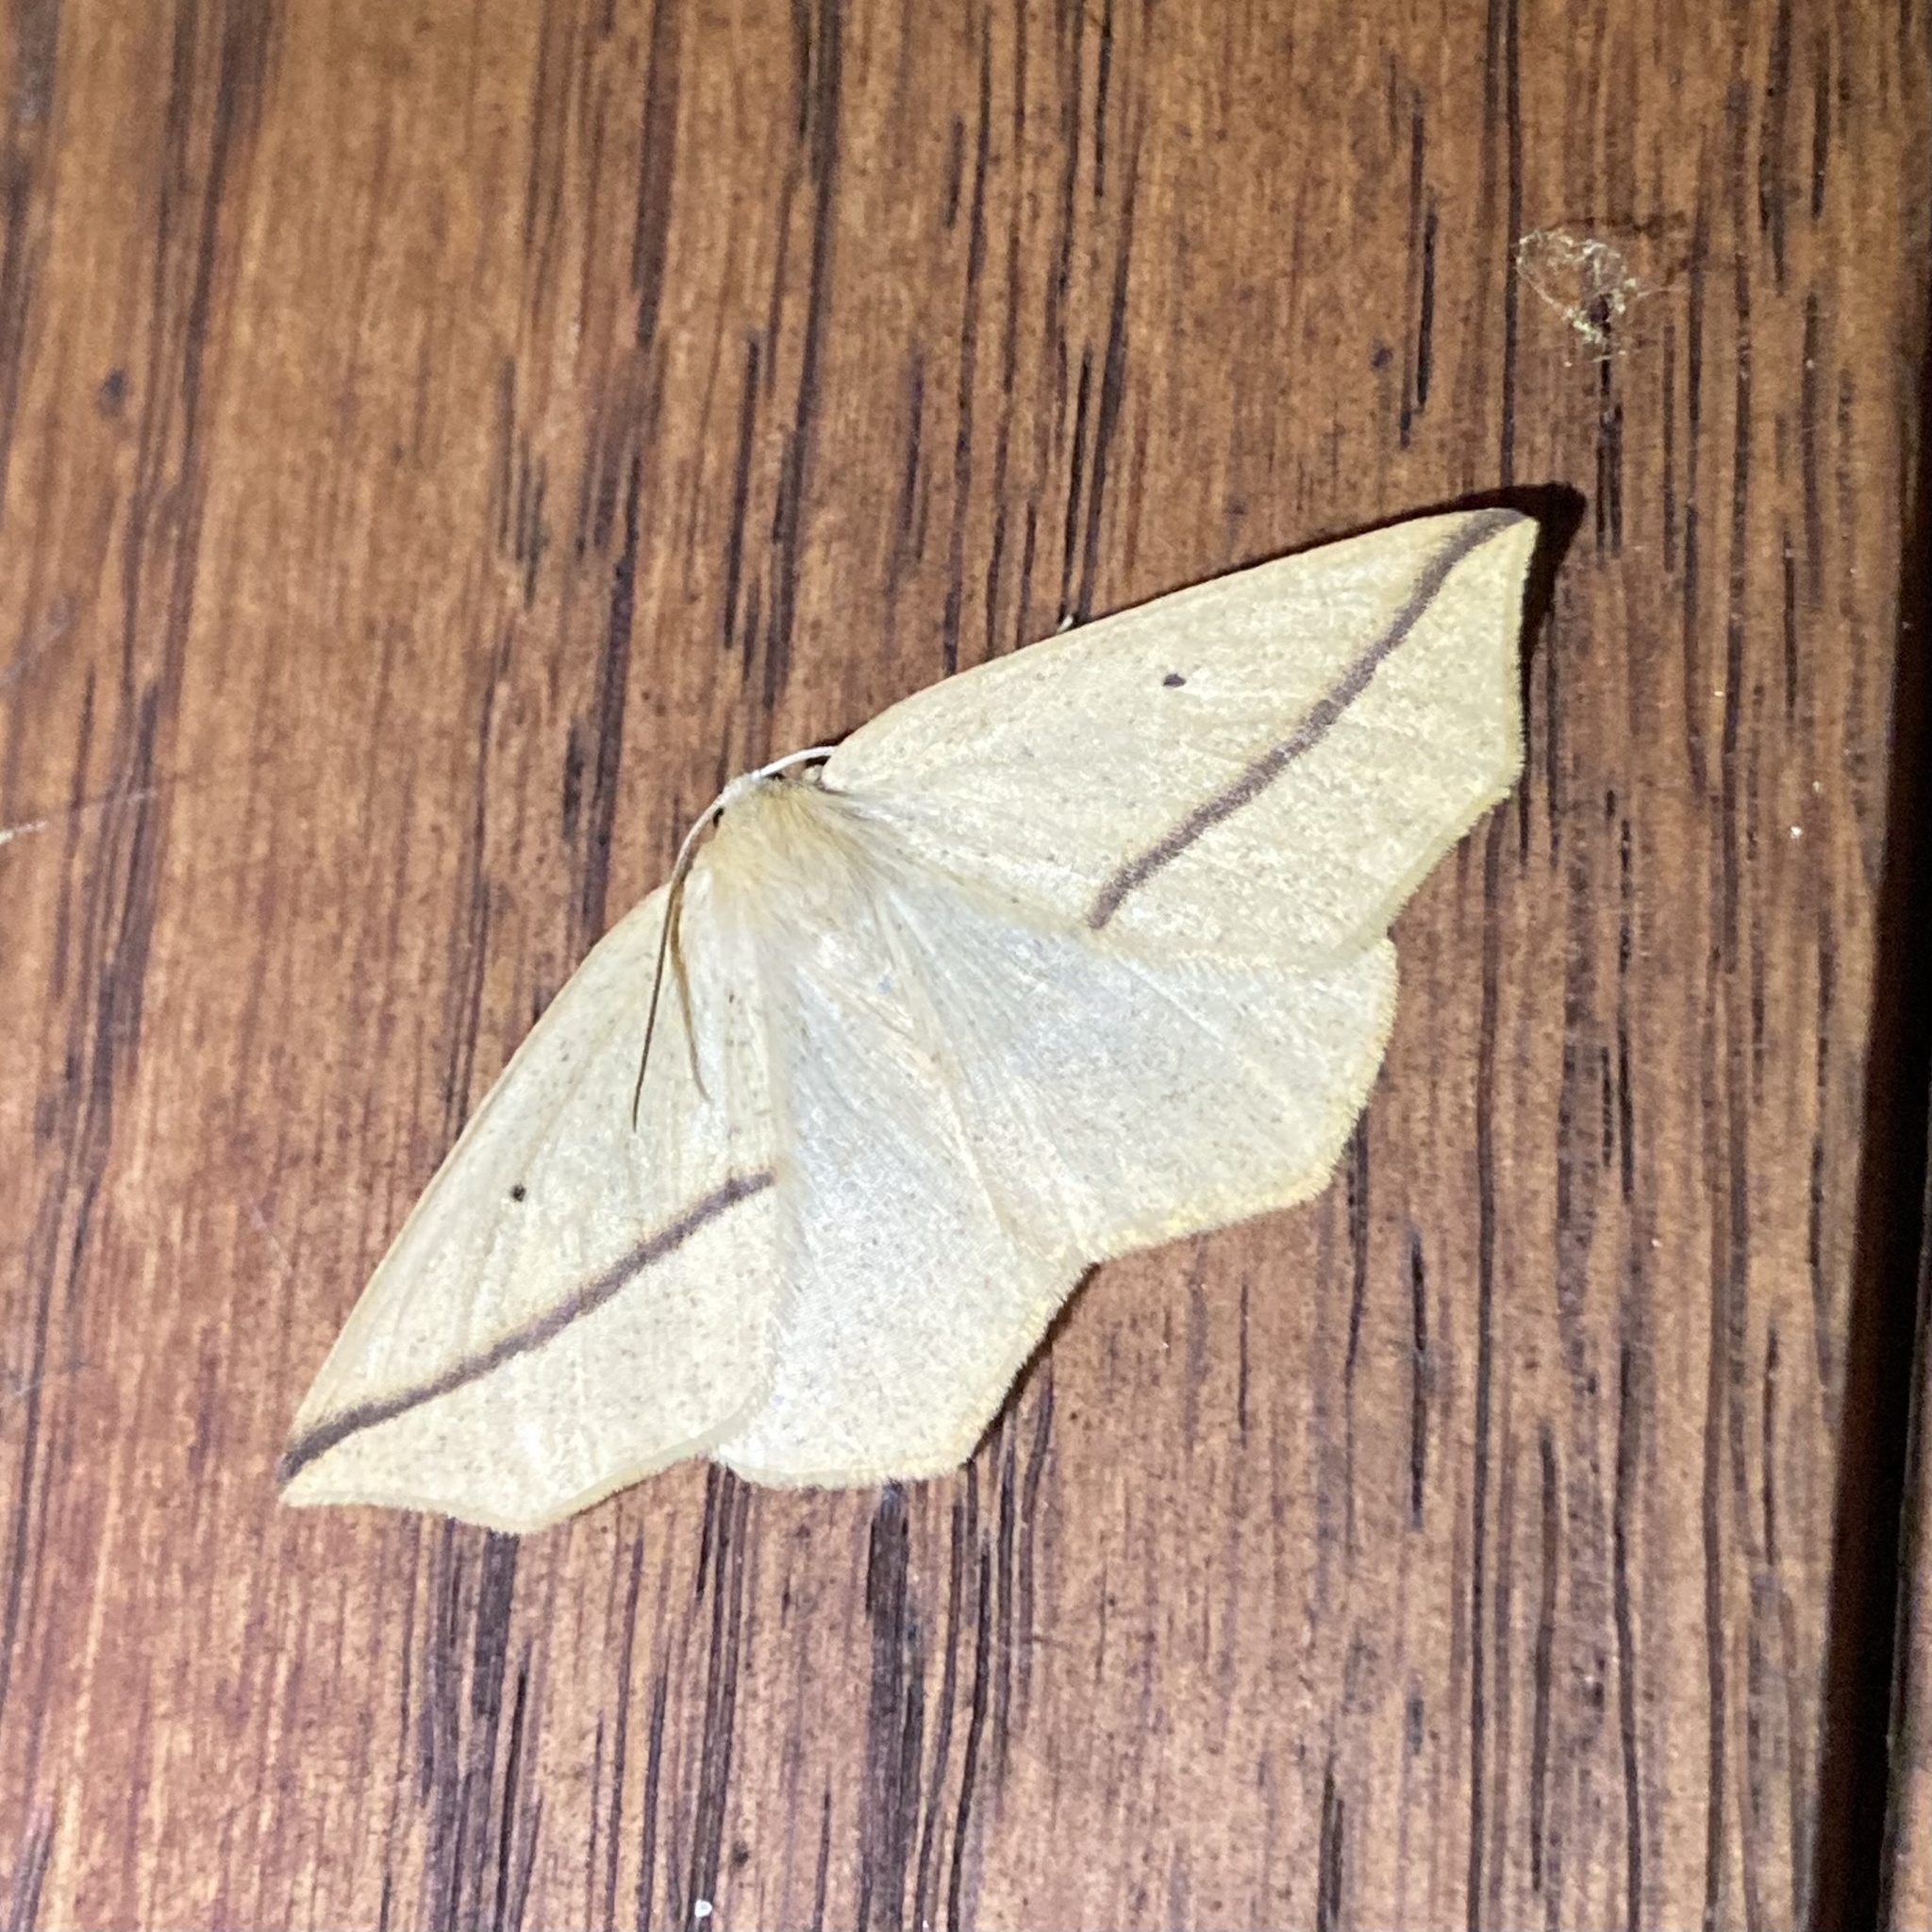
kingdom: Animalia
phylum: Arthropoda
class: Insecta
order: Lepidoptera
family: Geometridae
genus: Tetracis
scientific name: Tetracis crocallata
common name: Yellow slant-line
